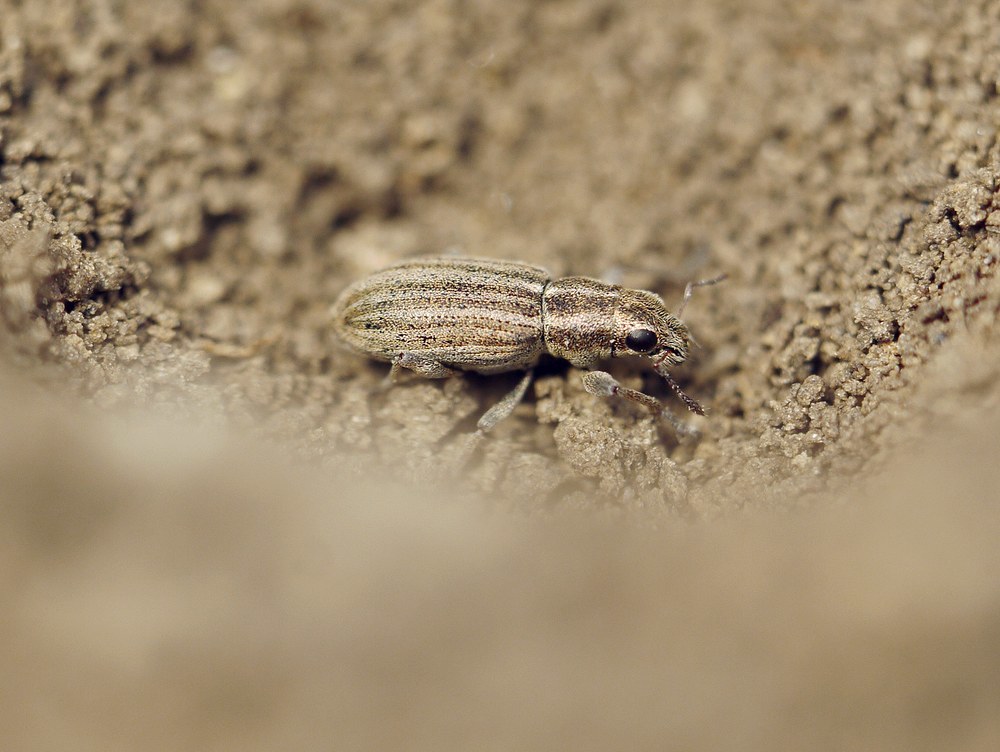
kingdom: Animalia
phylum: Arthropoda
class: Insecta
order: Coleoptera
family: Curculionidae
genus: Sitona
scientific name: Sitona lineatus
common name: Weevil
